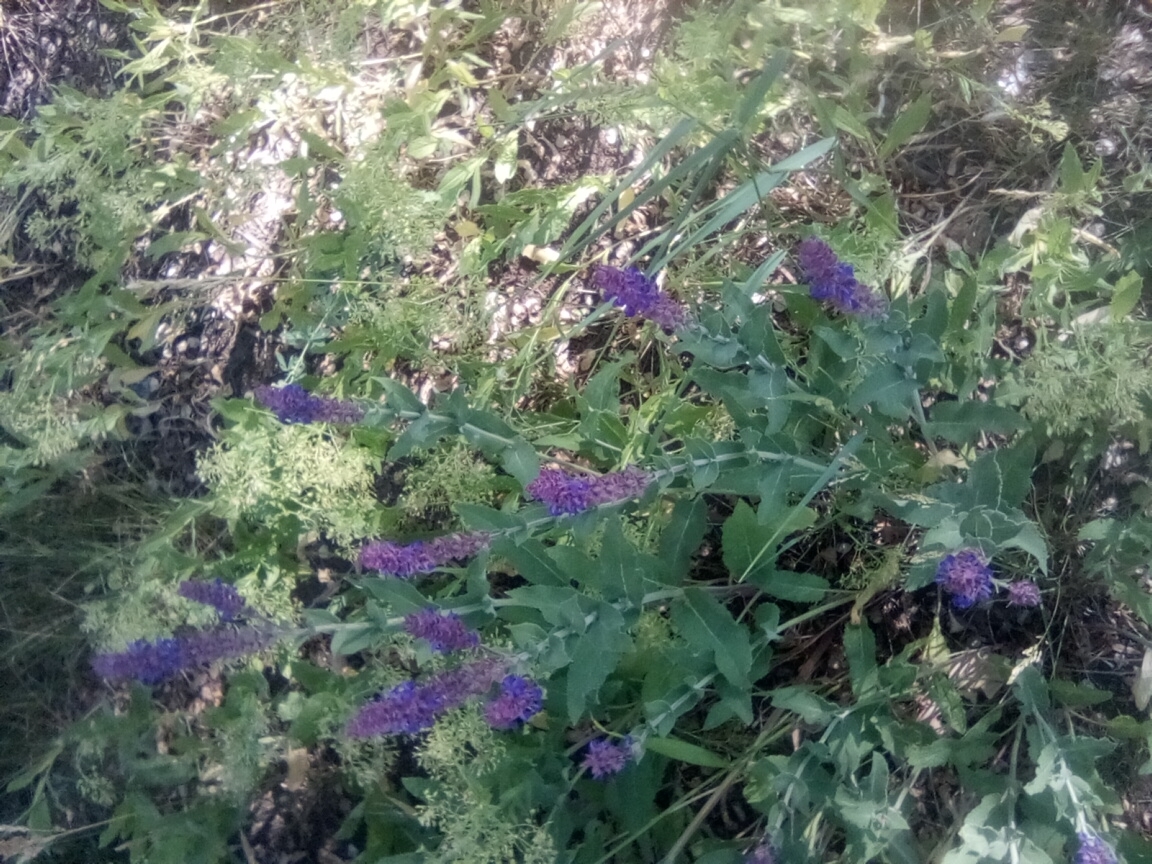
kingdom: Plantae
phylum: Tracheophyta
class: Magnoliopsida
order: Lamiales
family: Lamiaceae
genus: Salvia
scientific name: Salvia nemorosa
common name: Balkan clary
